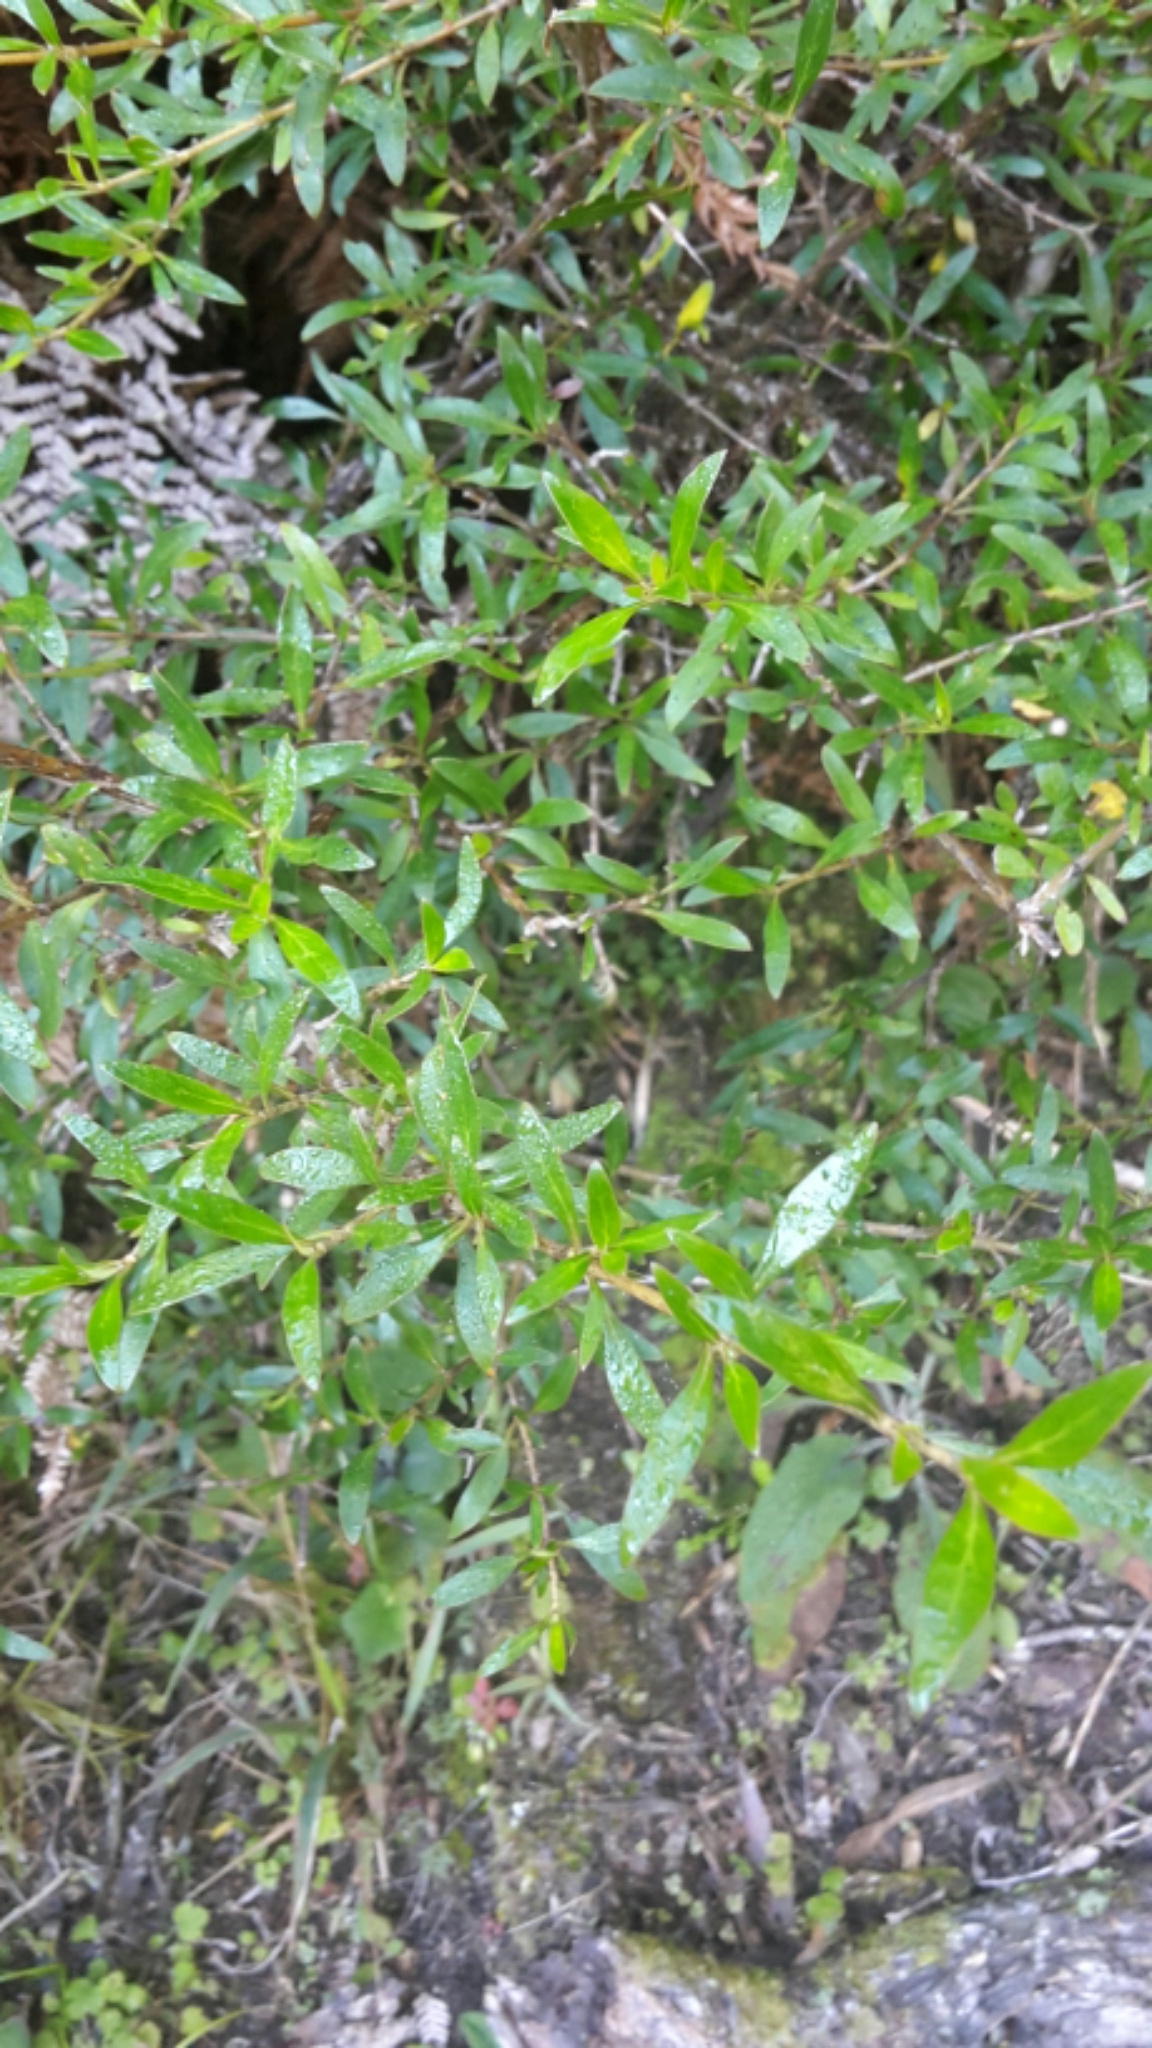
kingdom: Plantae
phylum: Tracheophyta
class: Magnoliopsida
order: Gentianales
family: Rubiaceae
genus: Coprosma
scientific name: Coprosma cunninghamii
